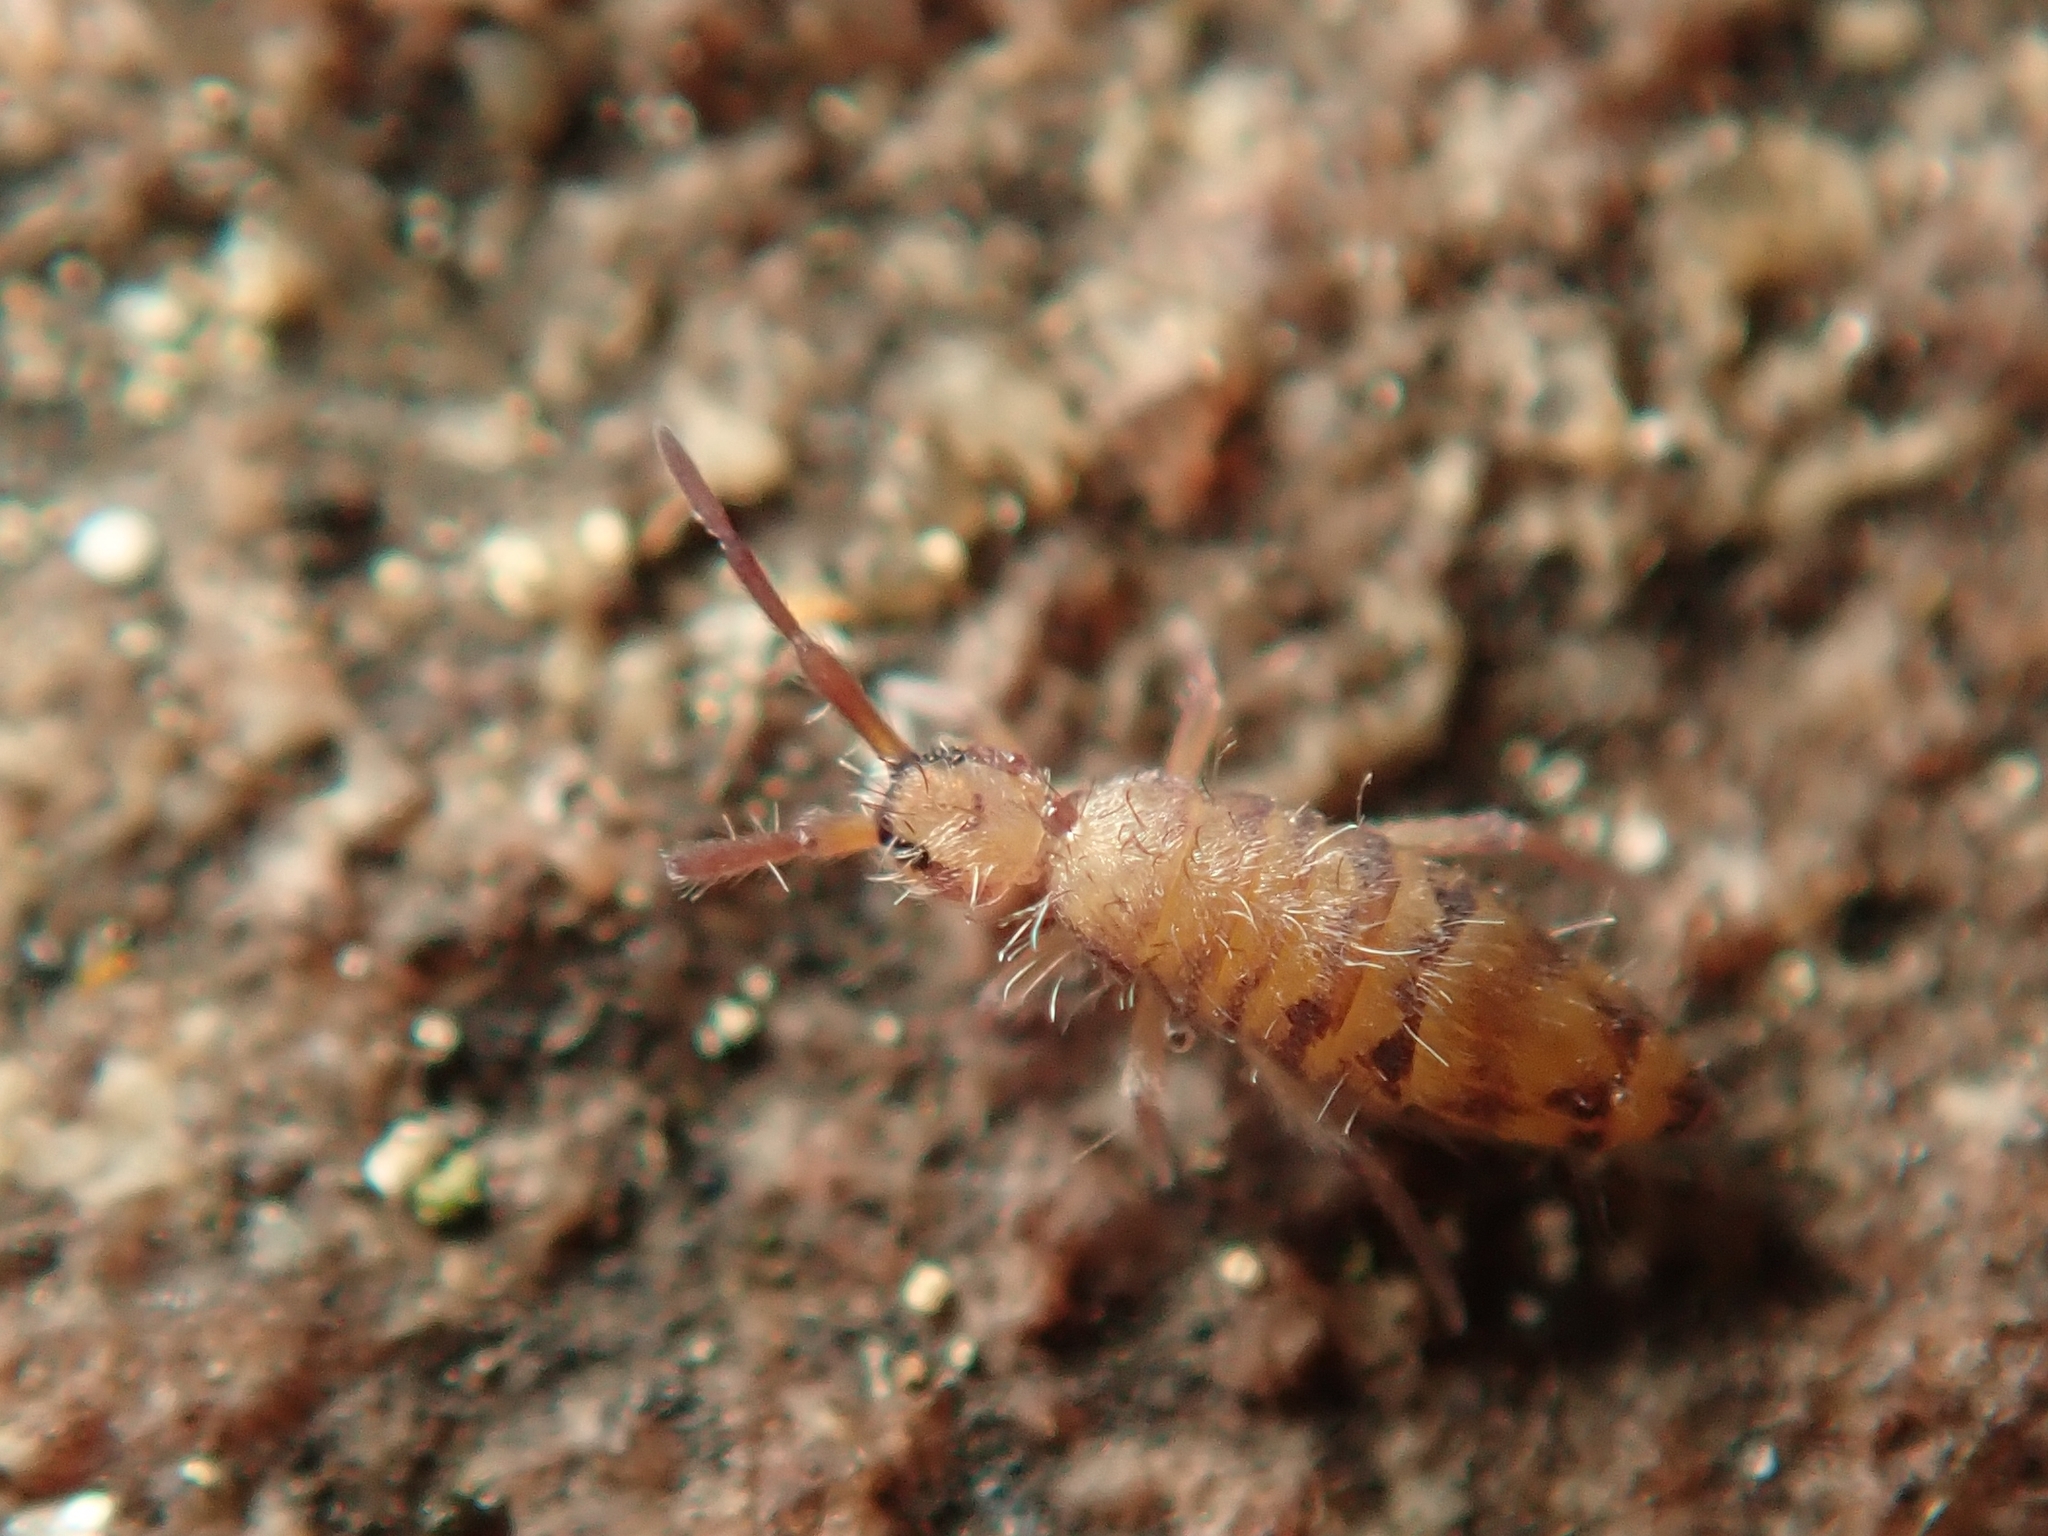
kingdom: Animalia
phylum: Arthropoda
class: Collembola
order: Entomobryomorpha
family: Entomobryidae
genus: Entomobrya
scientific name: Entomobrya multifasciata
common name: Springtail
